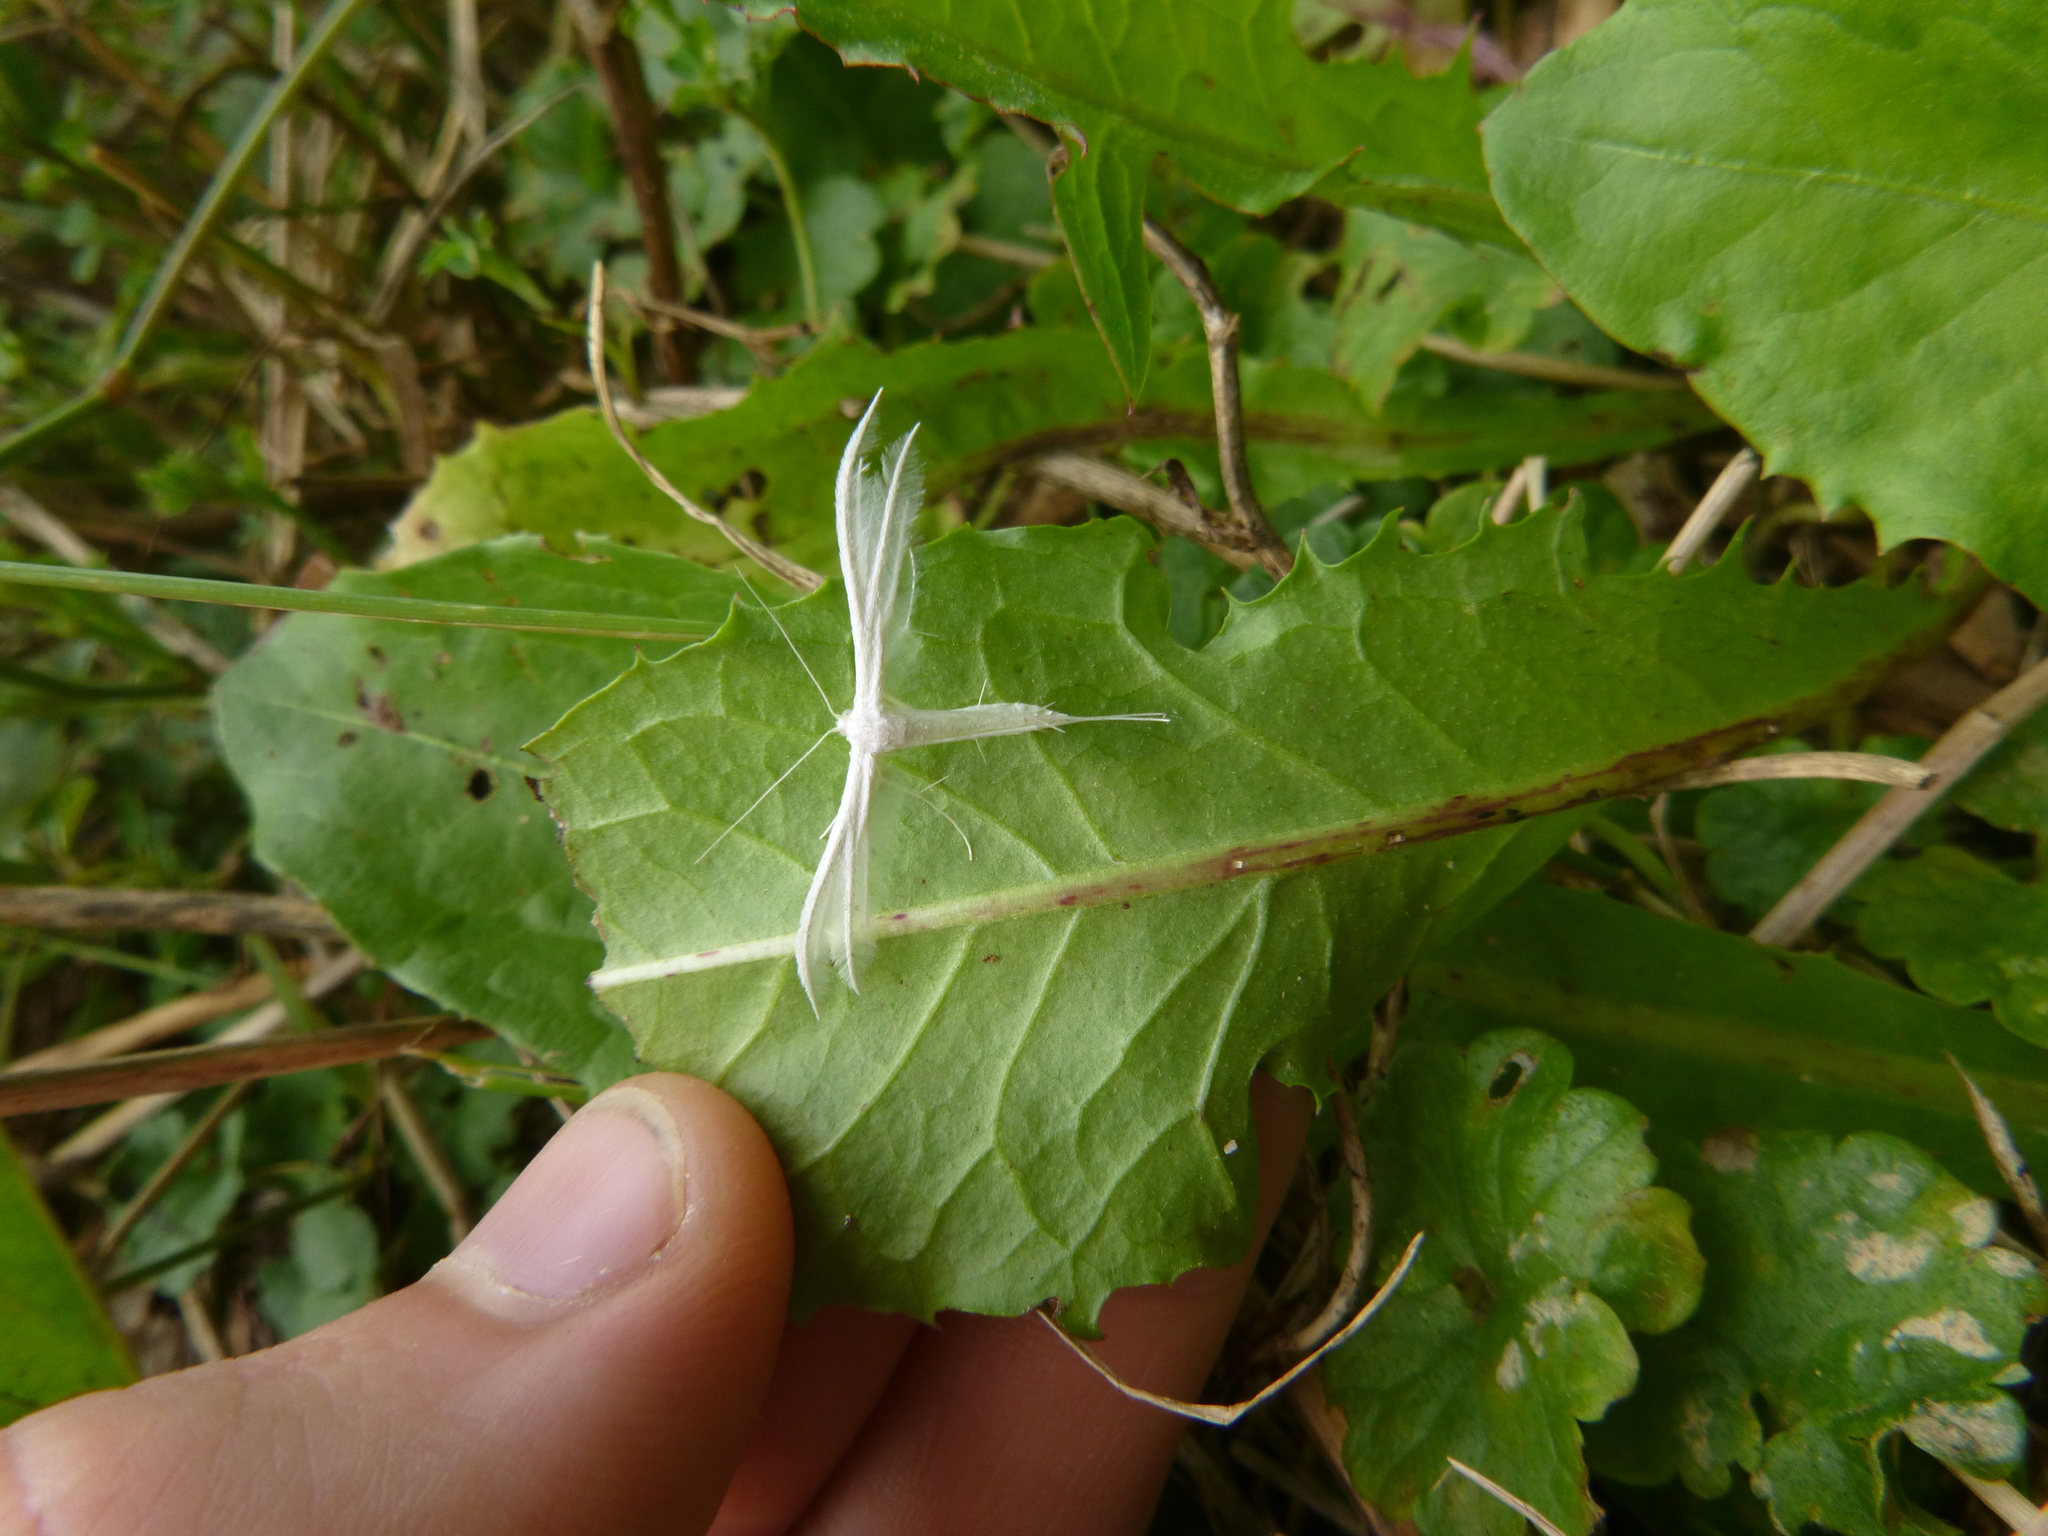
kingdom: Animalia
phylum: Arthropoda
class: Insecta
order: Lepidoptera
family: Pterophoridae
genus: Pterophorus
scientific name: Pterophorus pentadactyla
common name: White plume moth
